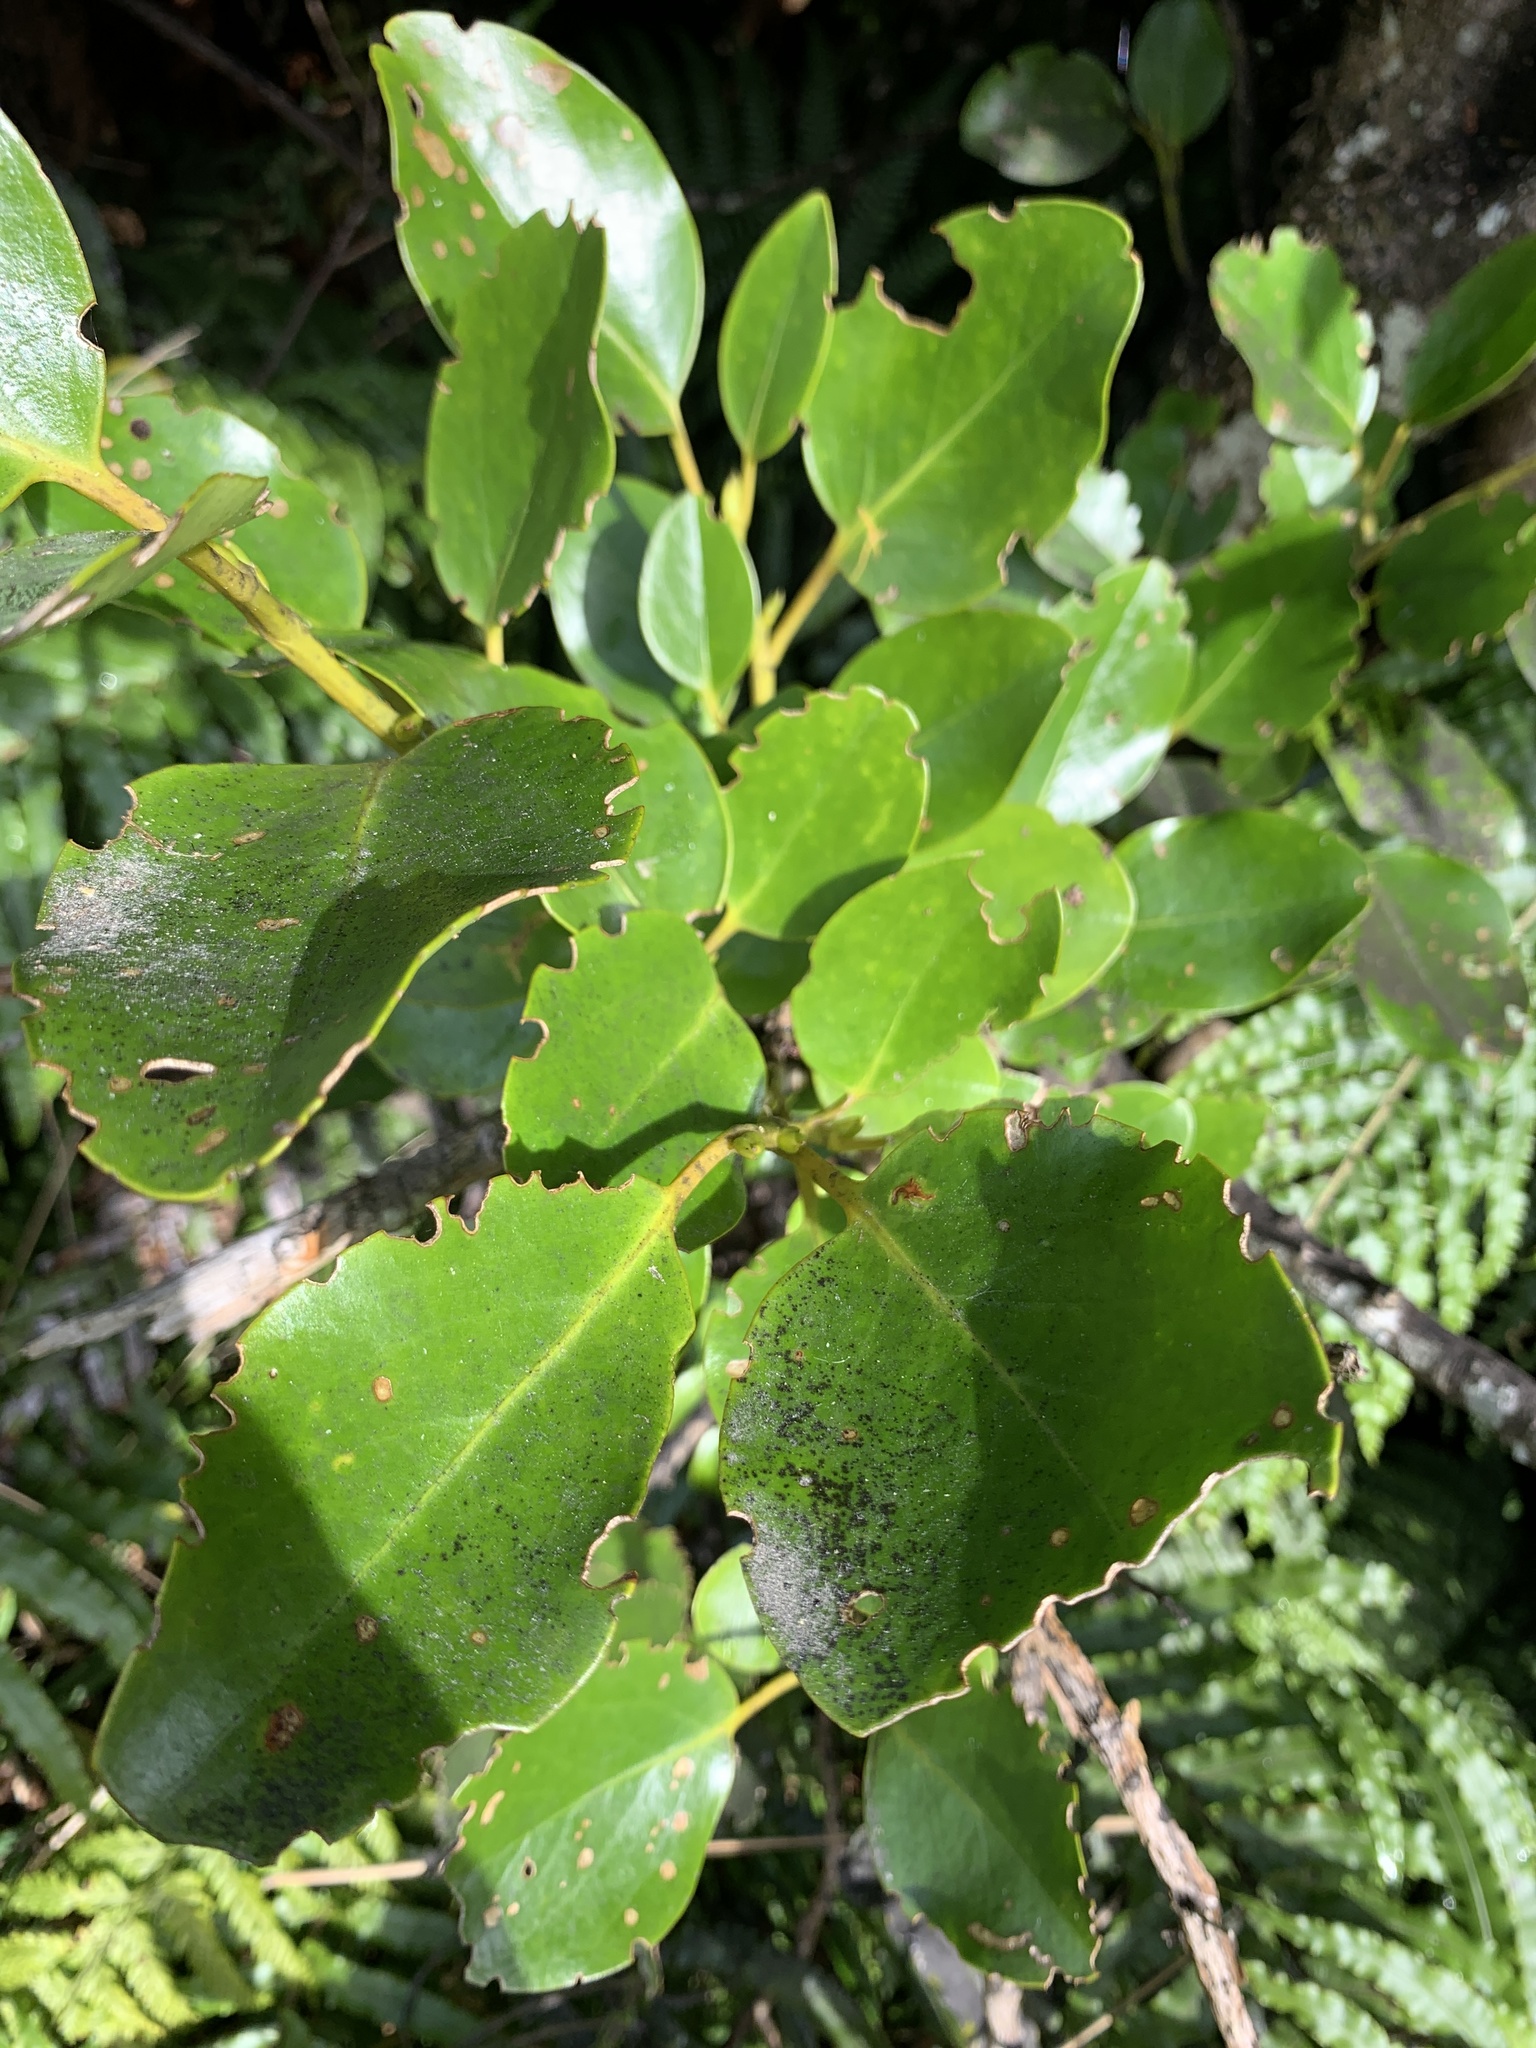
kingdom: Plantae
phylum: Tracheophyta
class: Magnoliopsida
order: Apiales
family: Griseliniaceae
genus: Griselinia
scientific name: Griselinia littoralis
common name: New zealand broadleaf
